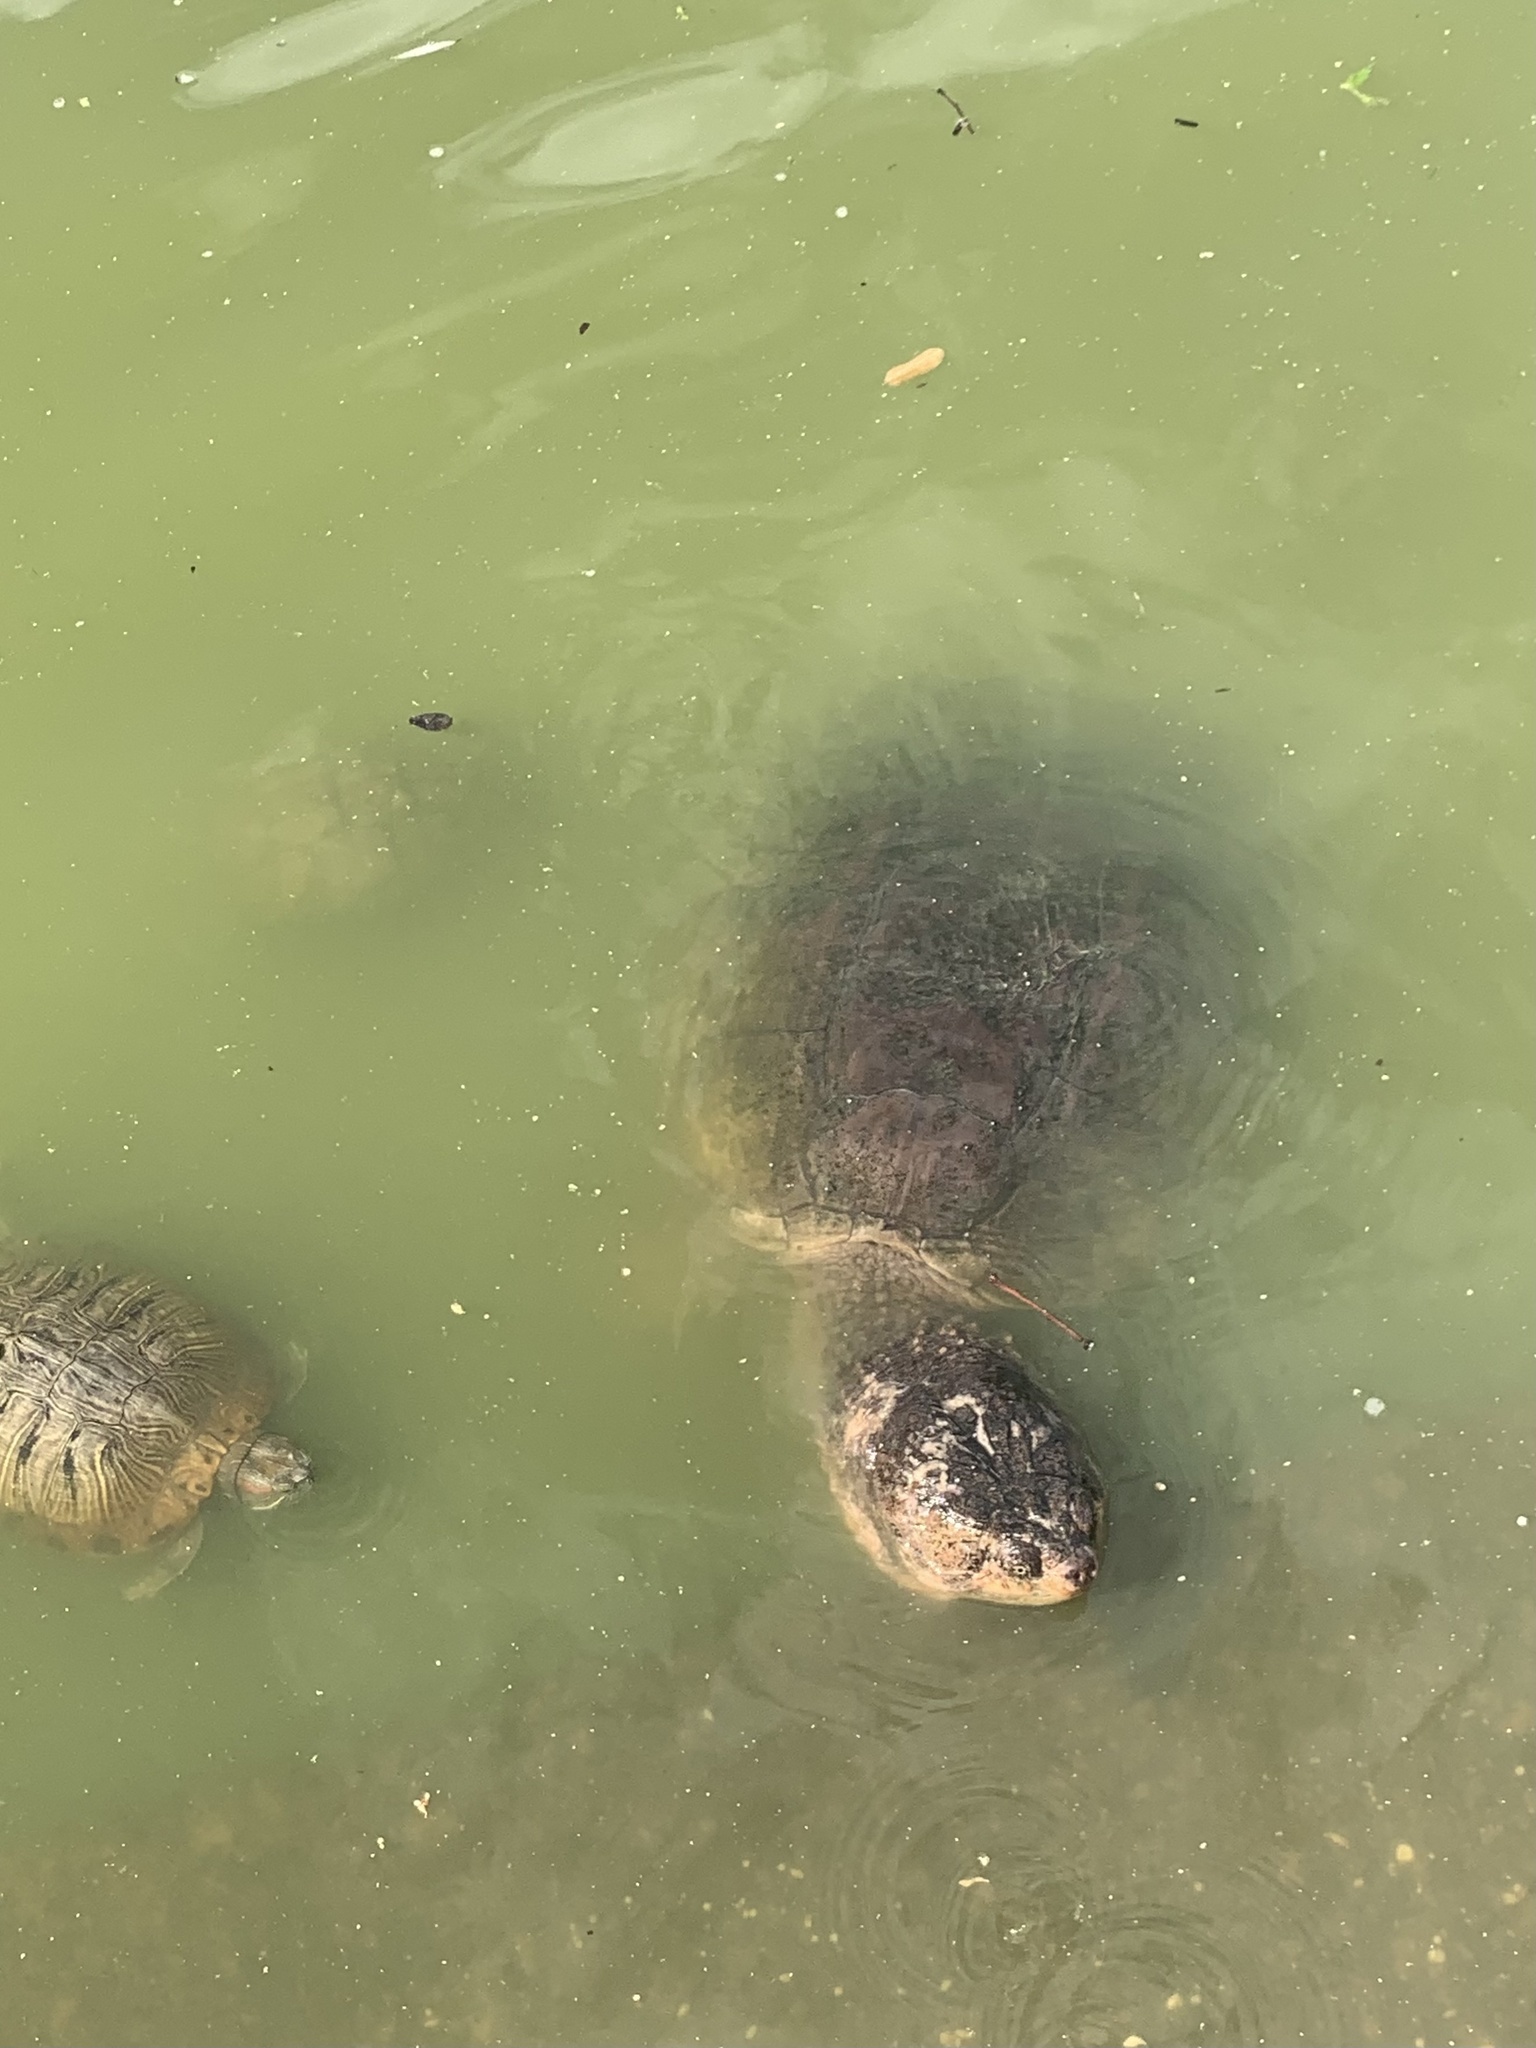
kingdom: Animalia
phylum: Chordata
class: Testudines
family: Chelydridae
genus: Chelydra
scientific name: Chelydra serpentina
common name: Common snapping turtle
